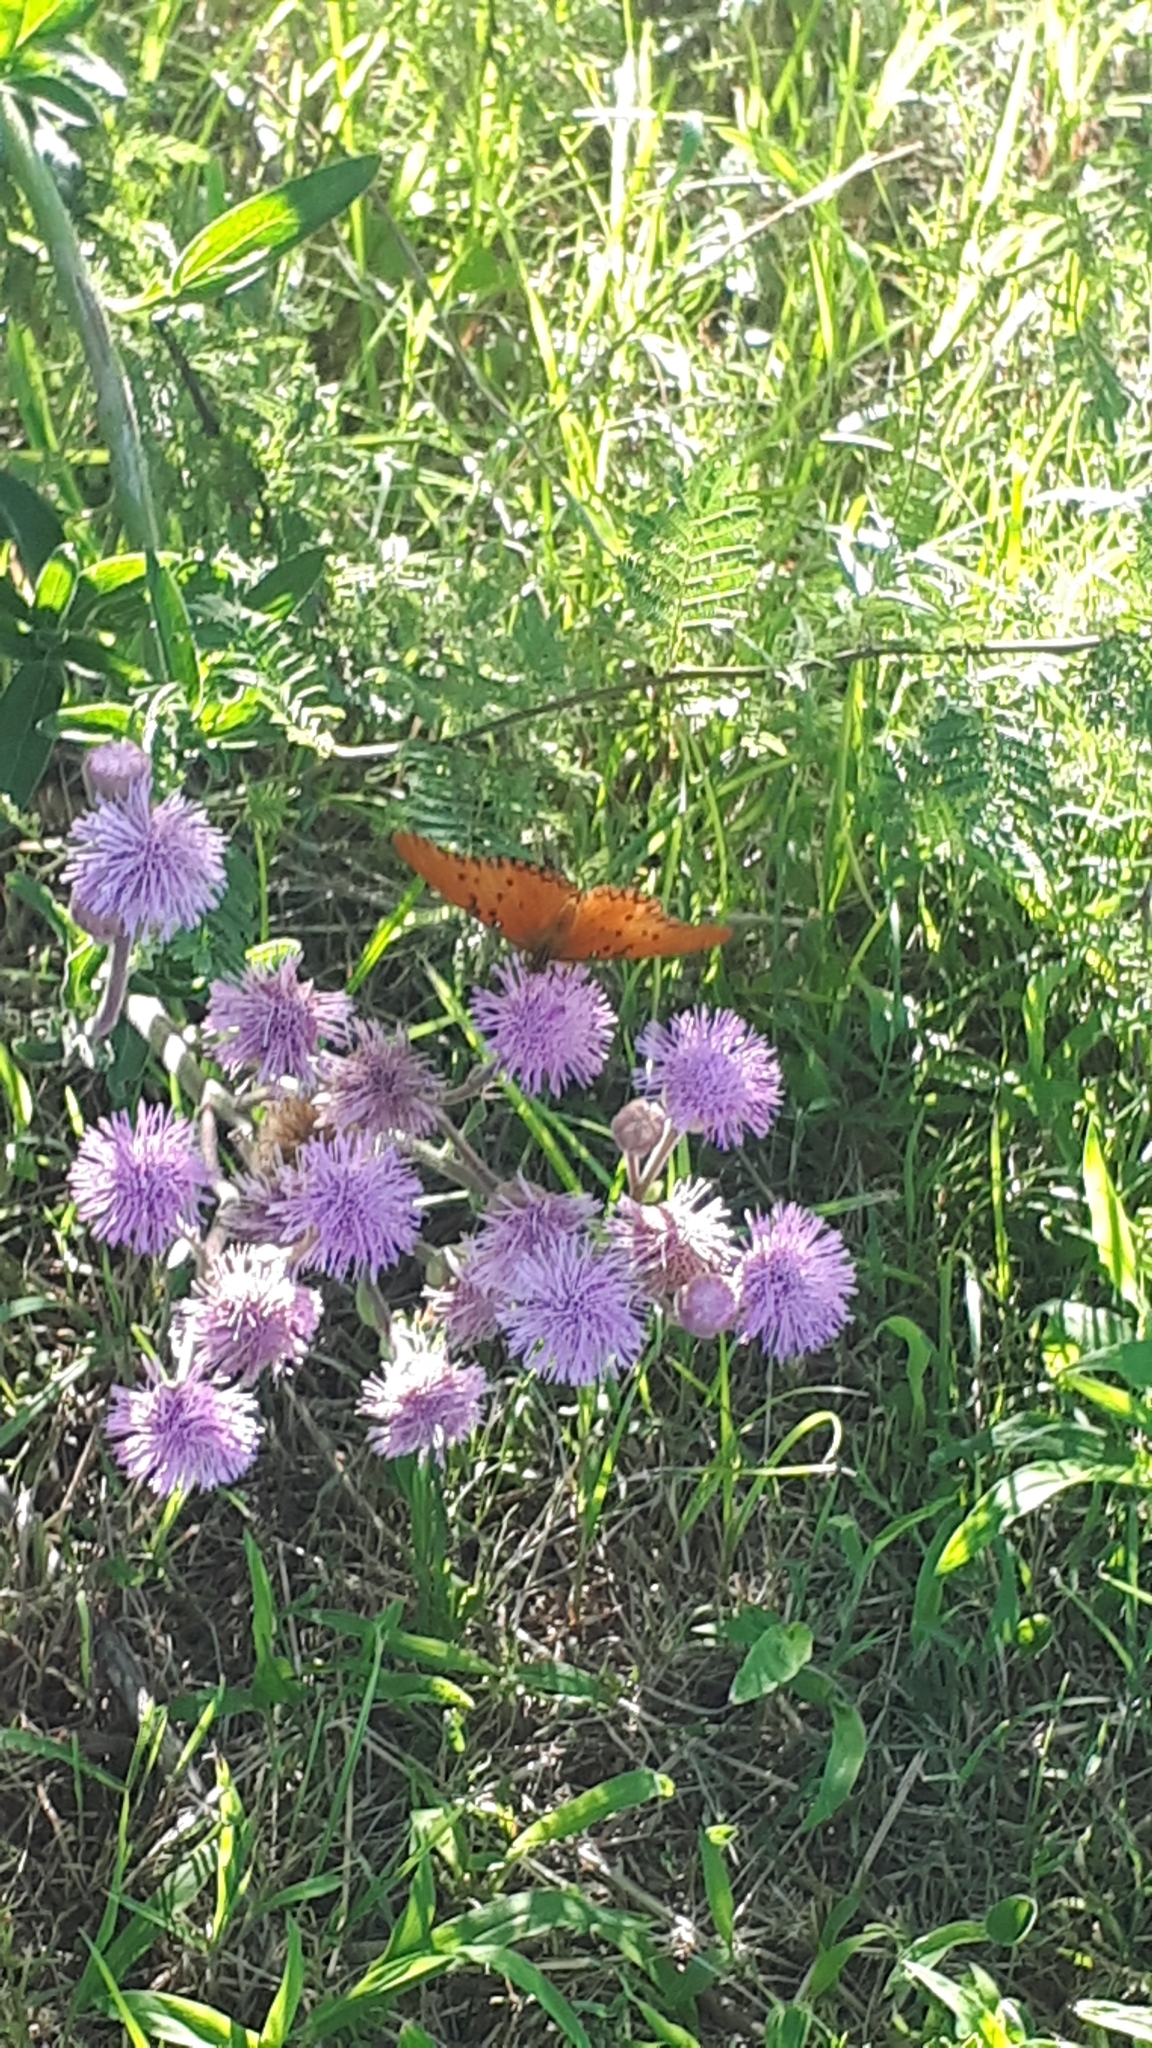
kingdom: Animalia
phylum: Arthropoda
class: Insecta
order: Lepidoptera
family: Nymphalidae
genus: Dione
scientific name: Dione vanillae
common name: Gulf fritillary
